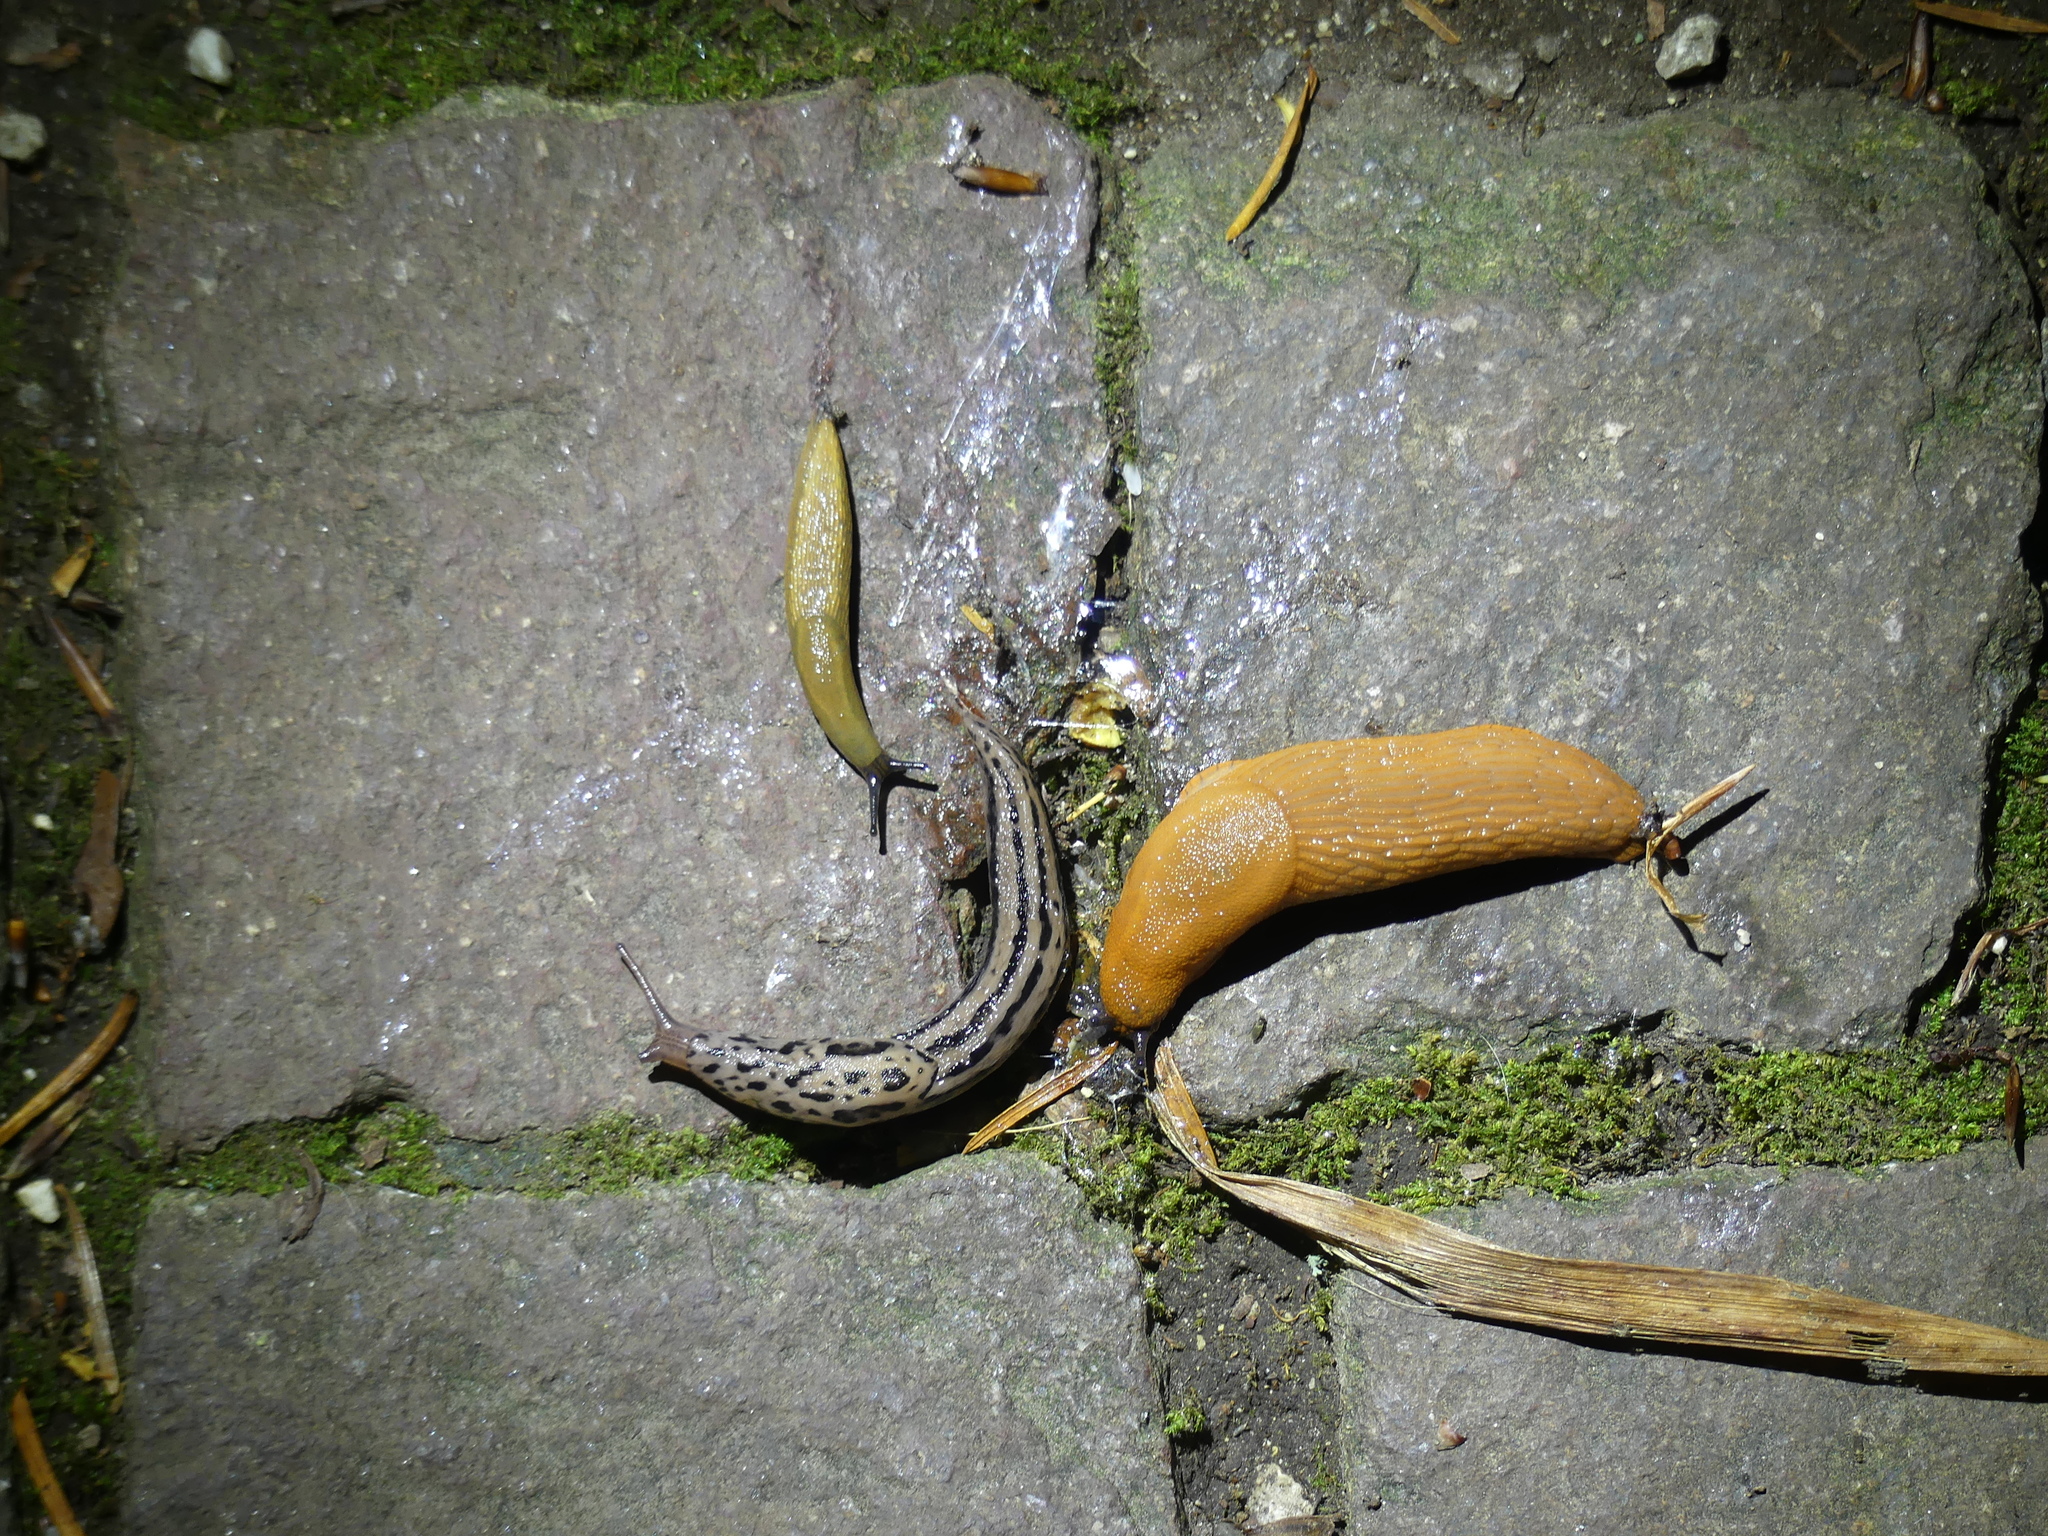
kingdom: Animalia
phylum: Mollusca
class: Gastropoda
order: Stylommatophora
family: Limacidae
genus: Limax
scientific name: Limax maximus
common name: Great grey slug
